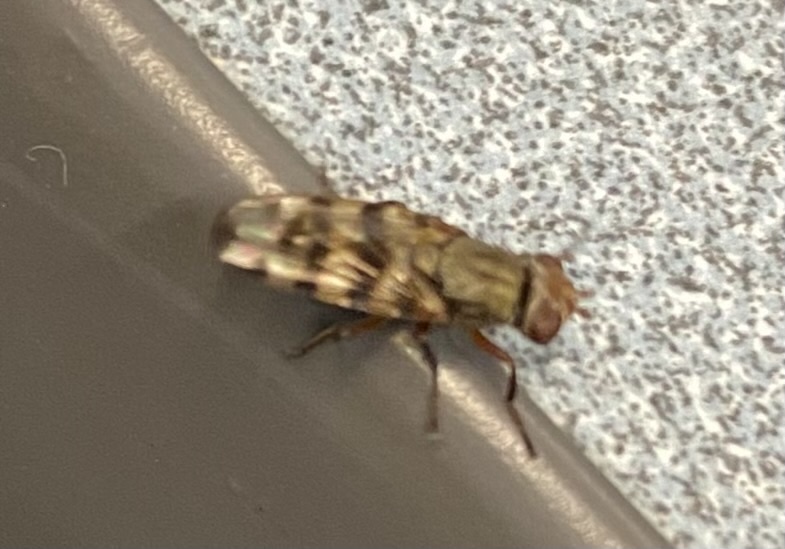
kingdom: Animalia
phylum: Arthropoda
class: Insecta
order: Diptera
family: Ulidiidae
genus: Ceroxys
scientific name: Ceroxys latiusculus
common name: Picture-winged fly
